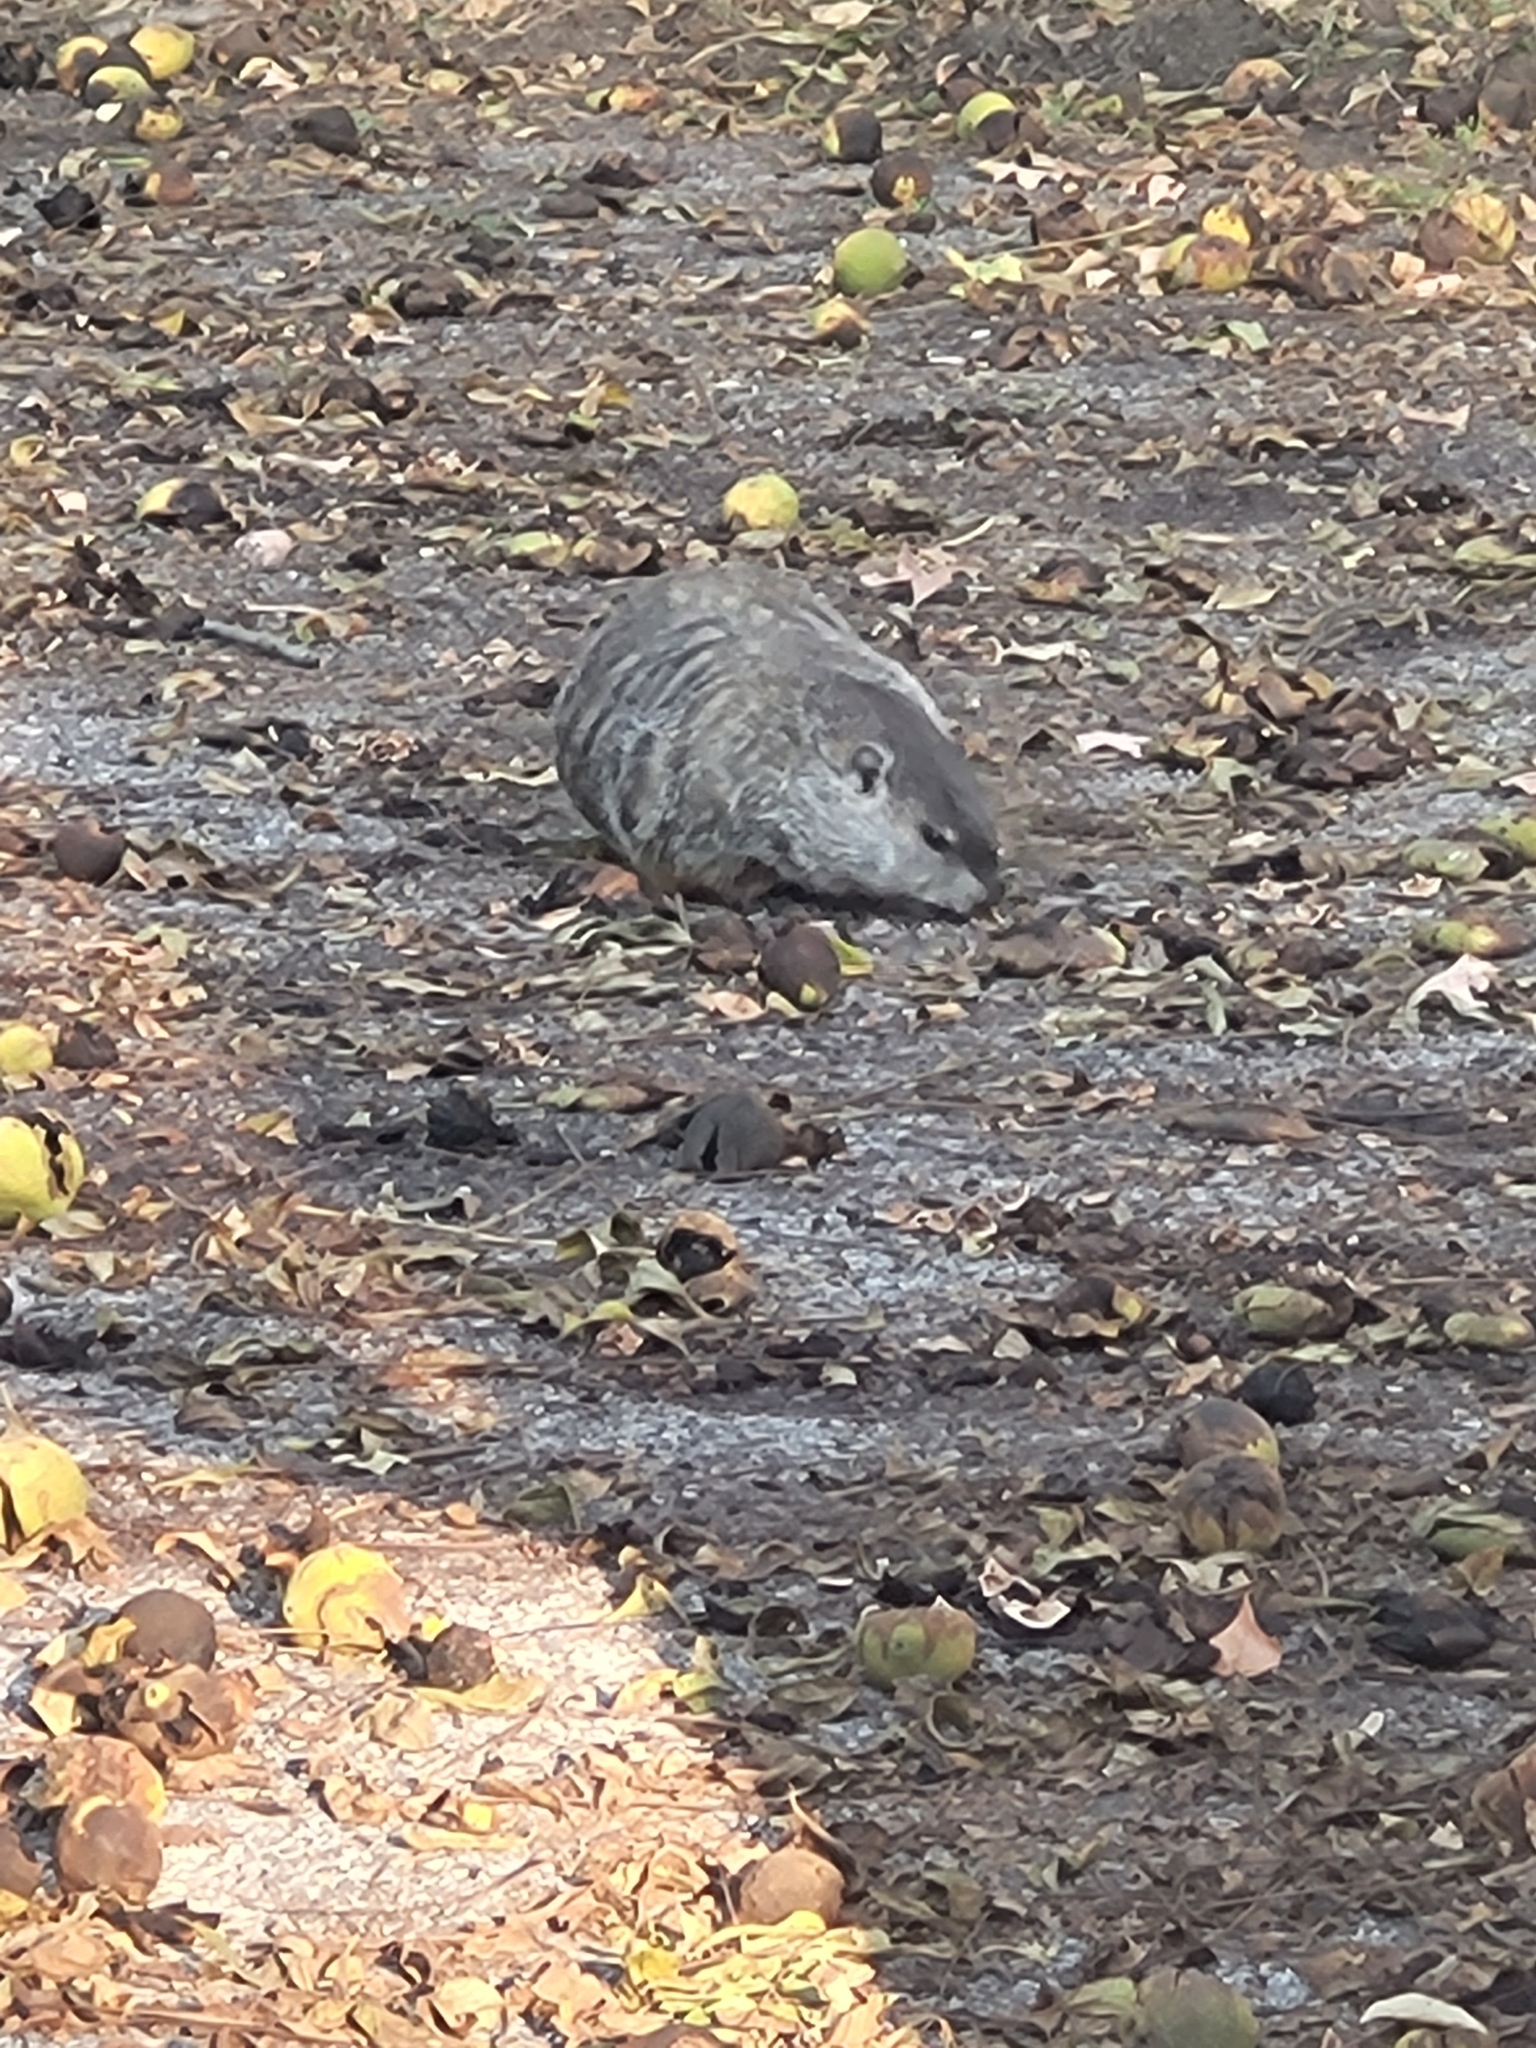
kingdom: Animalia
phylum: Chordata
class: Mammalia
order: Rodentia
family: Sciuridae
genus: Marmota
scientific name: Marmota monax
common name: Groundhog
